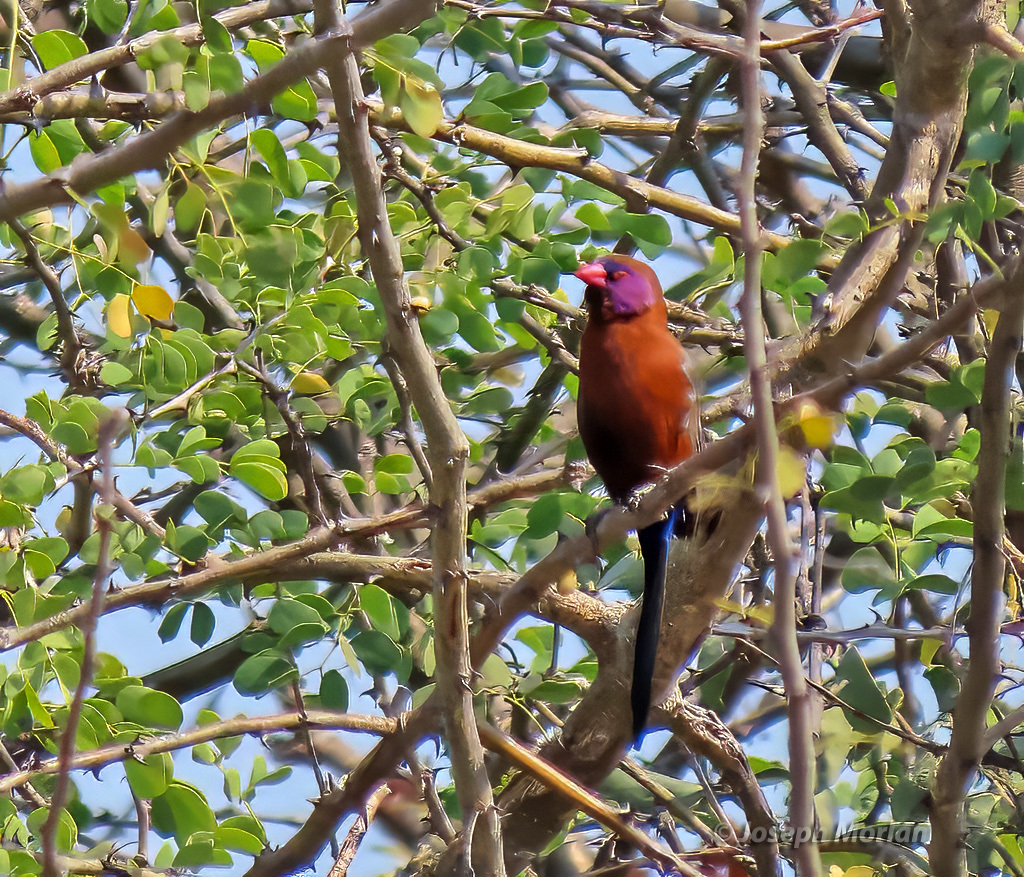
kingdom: Animalia
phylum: Chordata
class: Aves
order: Passeriformes
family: Estrildidae
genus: Uraeginthus
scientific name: Uraeginthus granatinus
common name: Violet-eared waxbill
